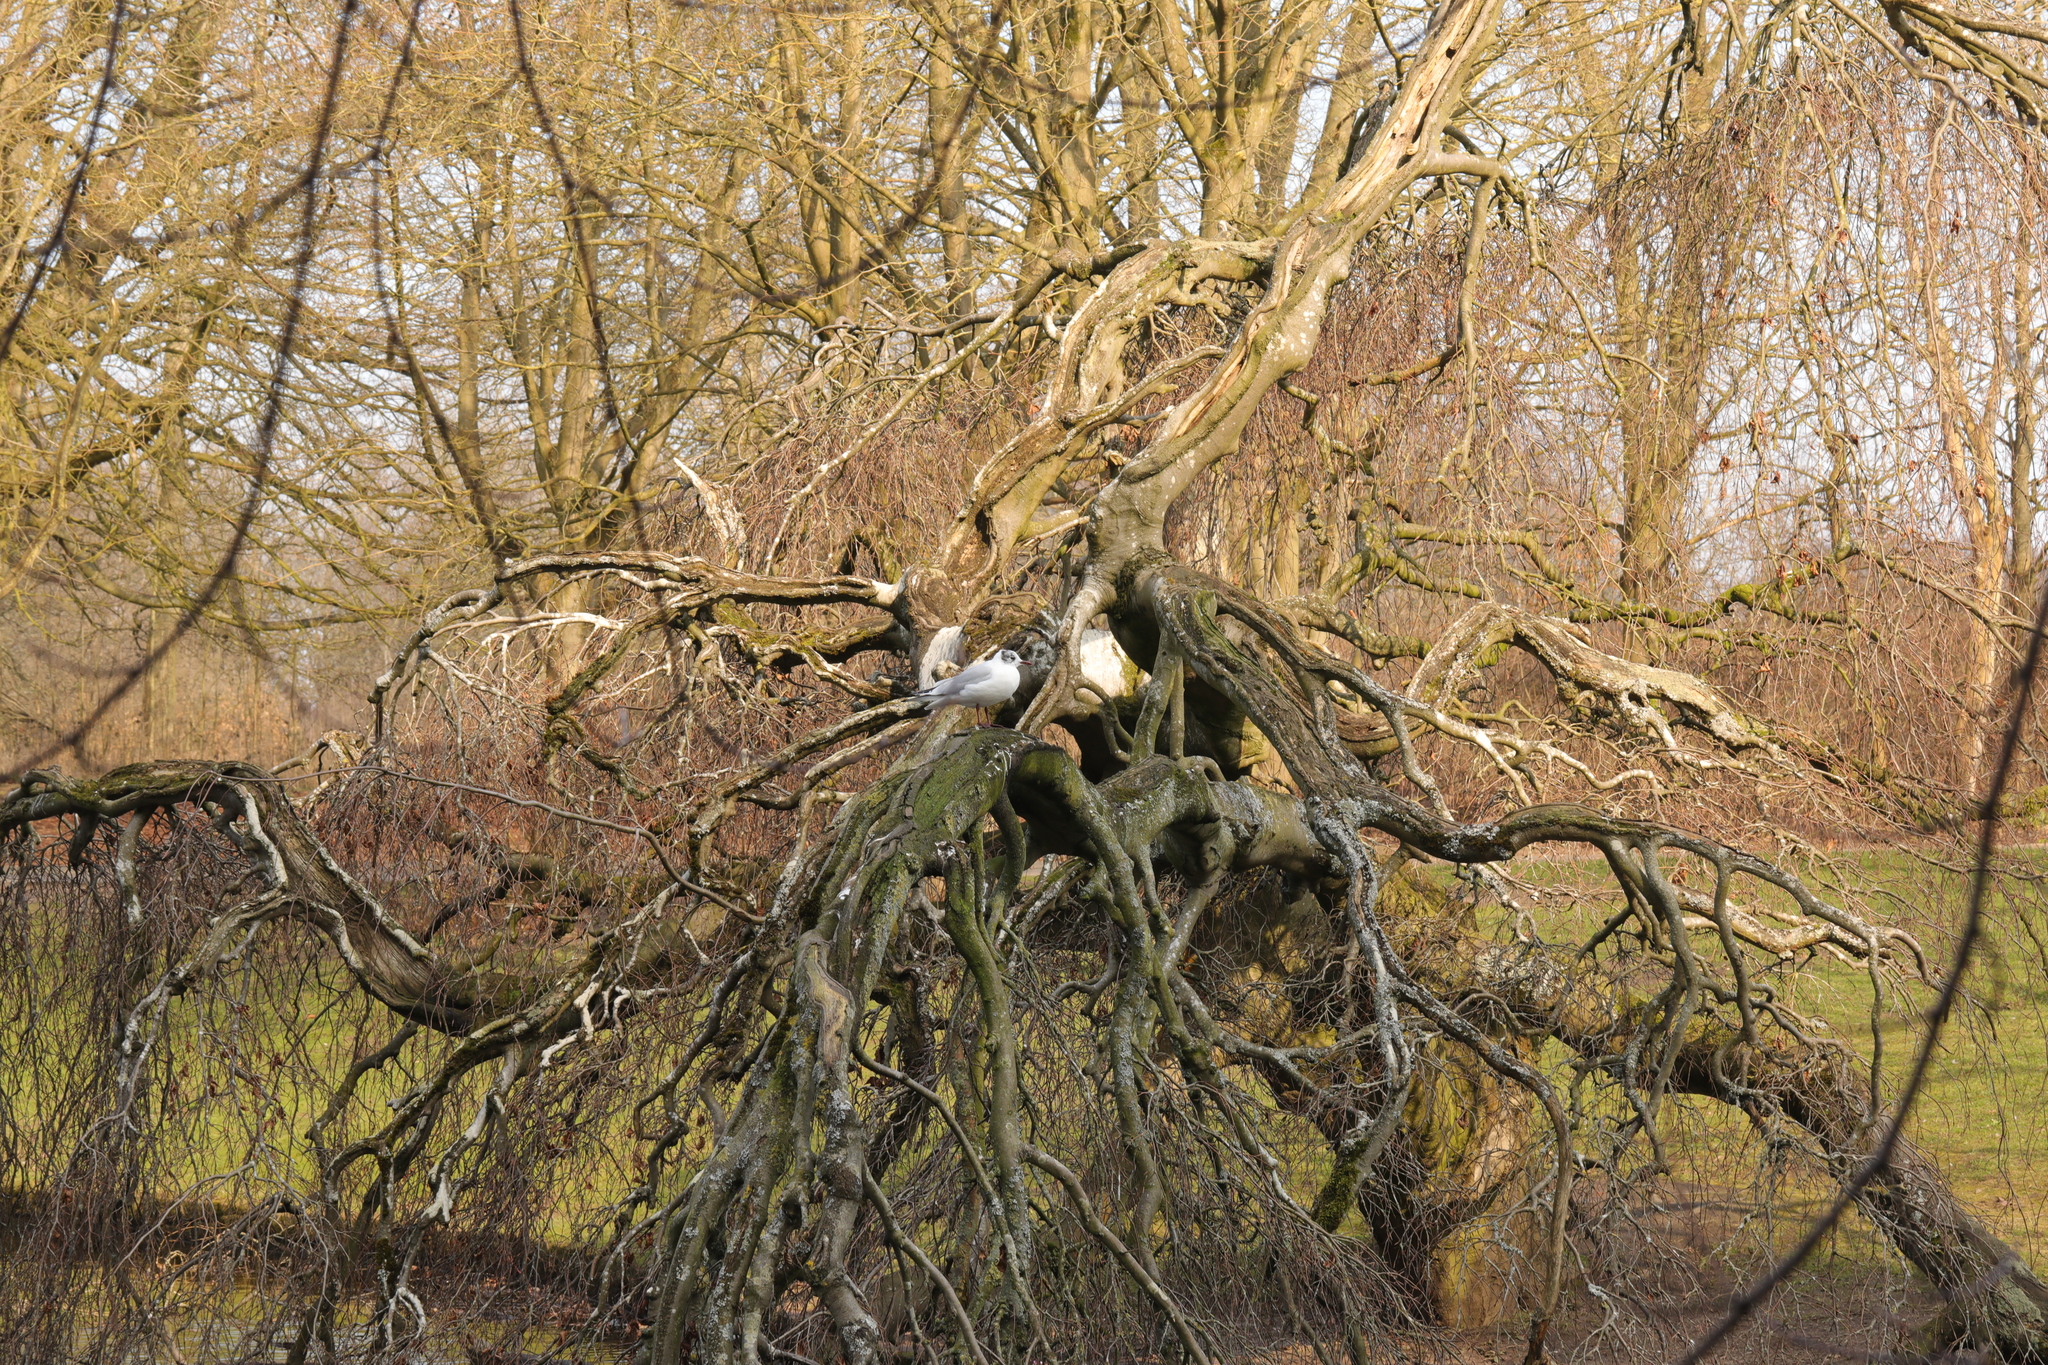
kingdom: Animalia
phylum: Chordata
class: Aves
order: Charadriiformes
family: Laridae
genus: Chroicocephalus
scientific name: Chroicocephalus ridibundus
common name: Black-headed gull
